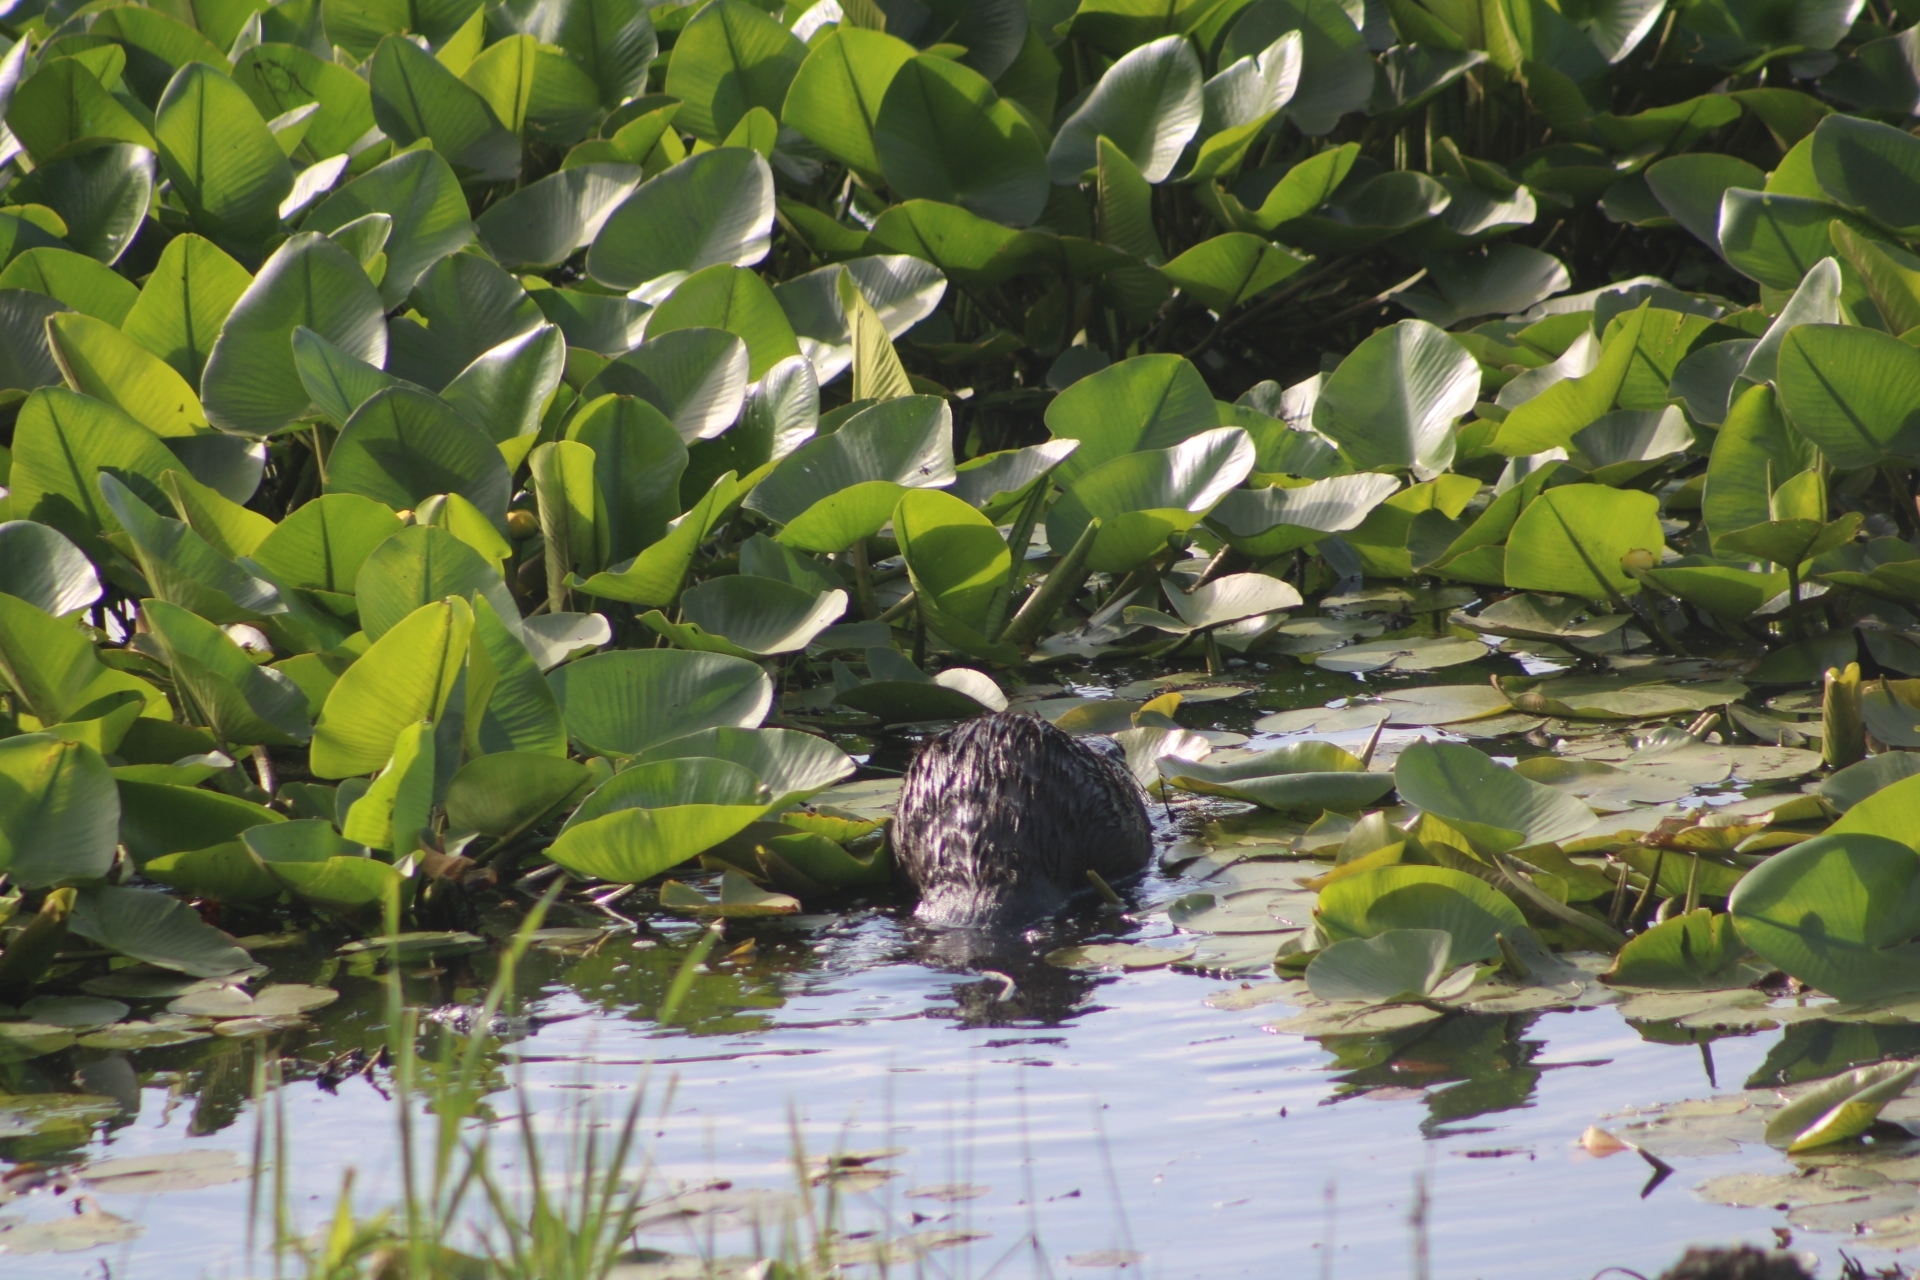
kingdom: Animalia
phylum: Chordata
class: Mammalia
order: Rodentia
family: Castoridae
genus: Castor
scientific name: Castor canadensis
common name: American beaver
